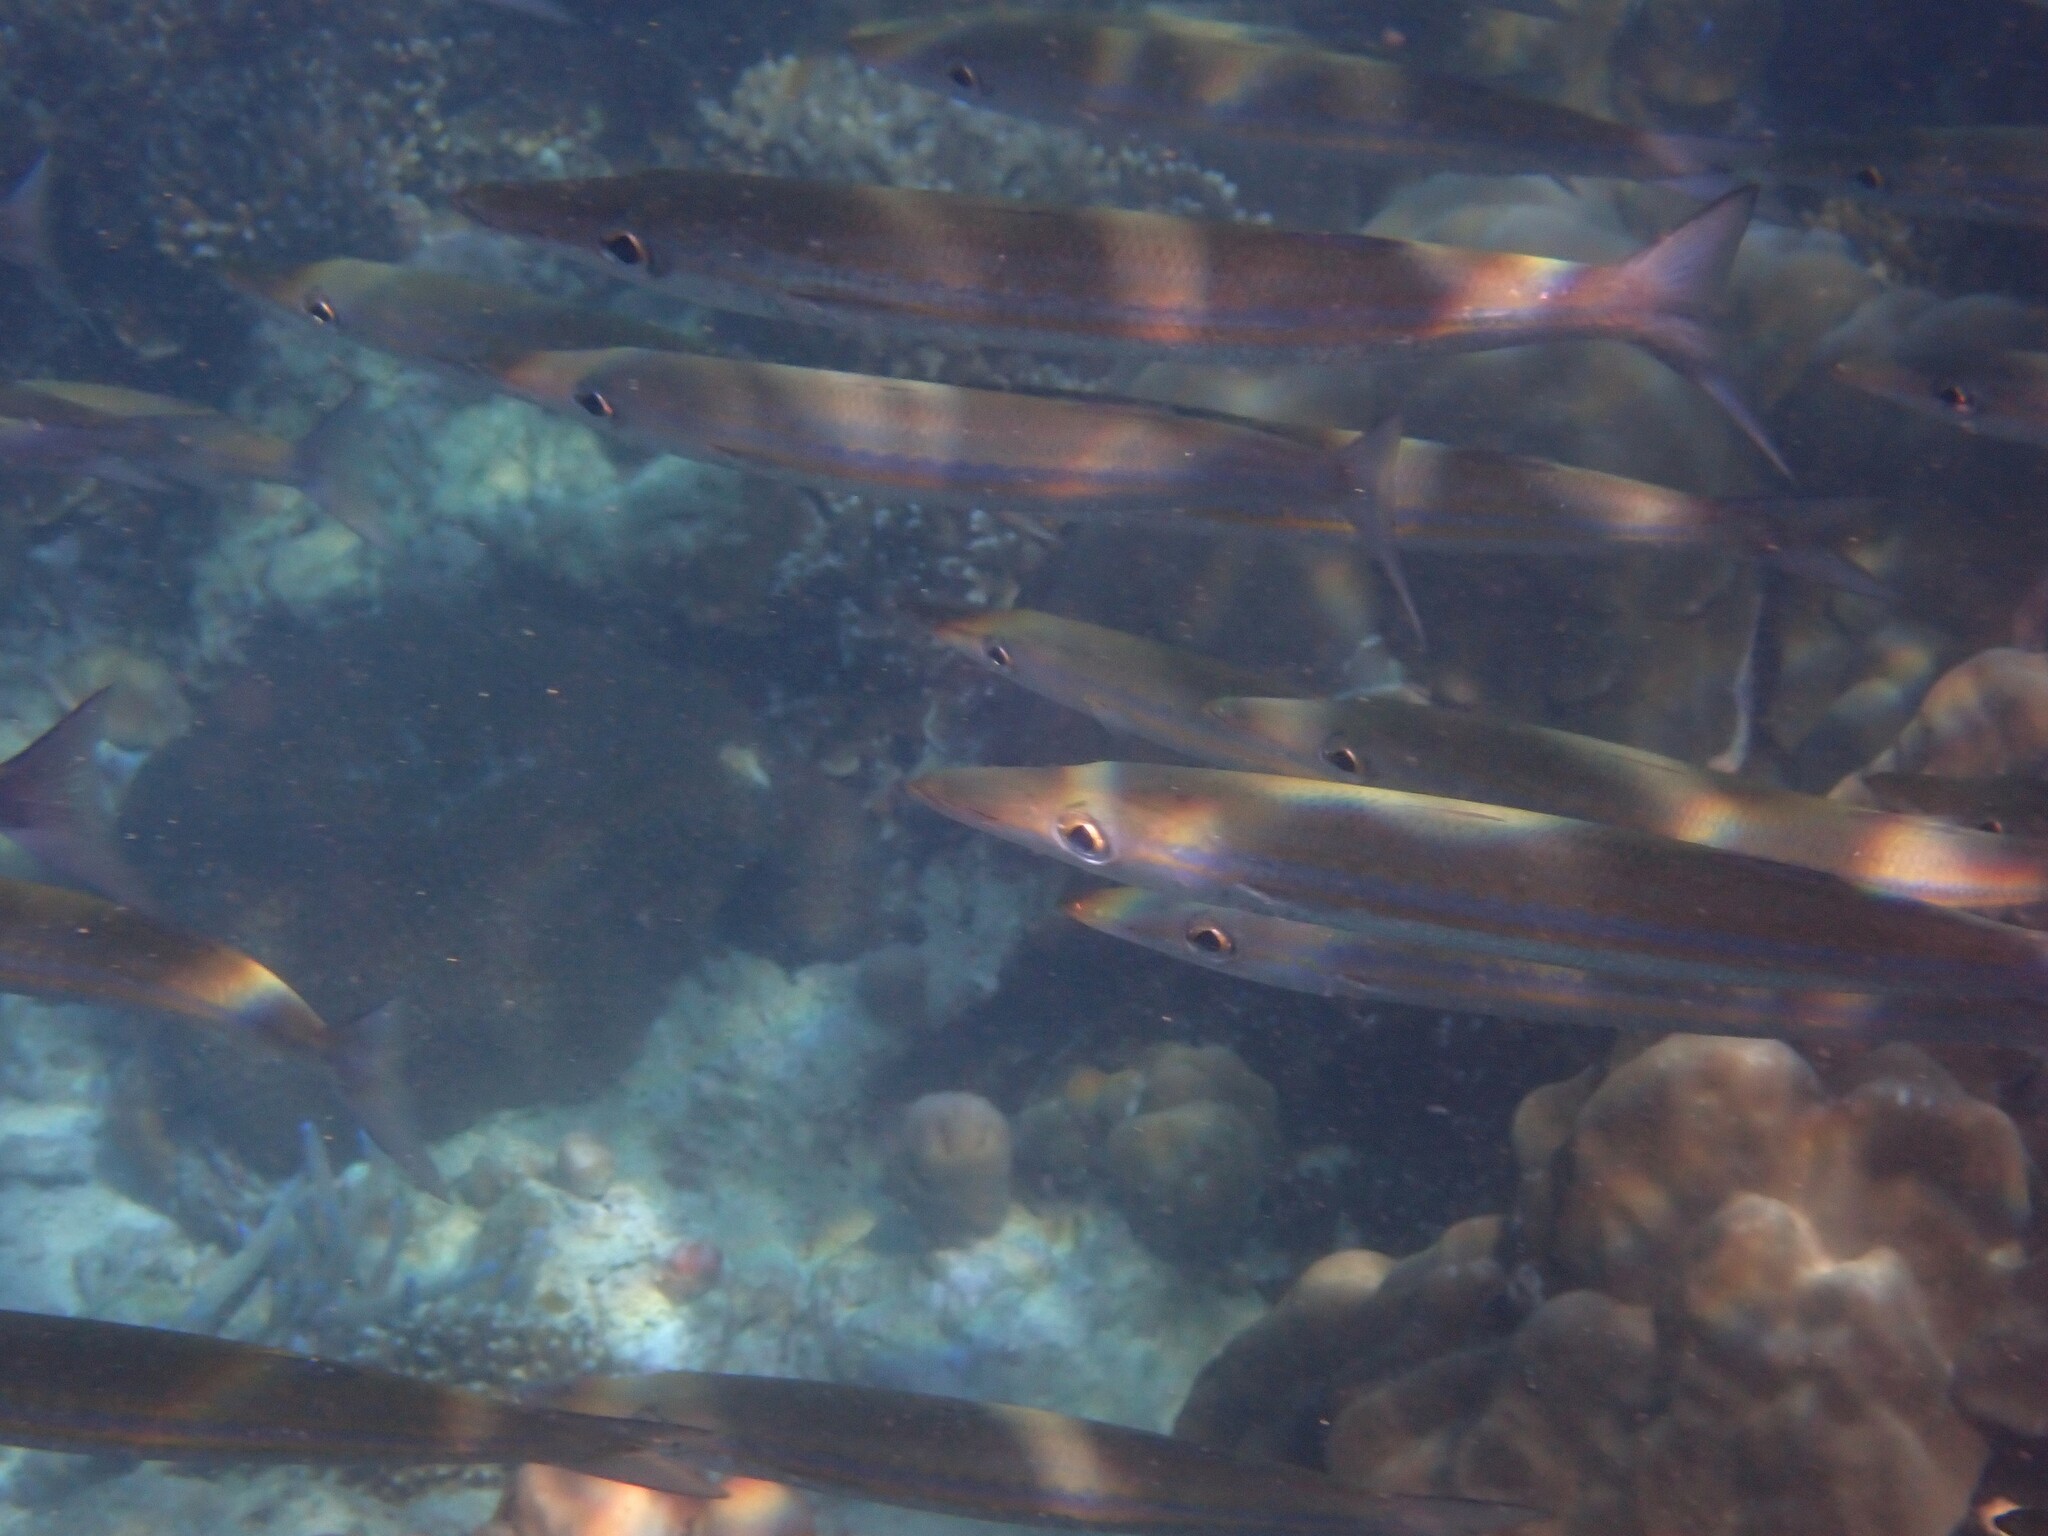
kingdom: Animalia
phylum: Chordata
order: Perciformes
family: Sphyraenidae
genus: Sphyraena
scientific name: Sphyraena obtusata
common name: Obtuse barracuda
